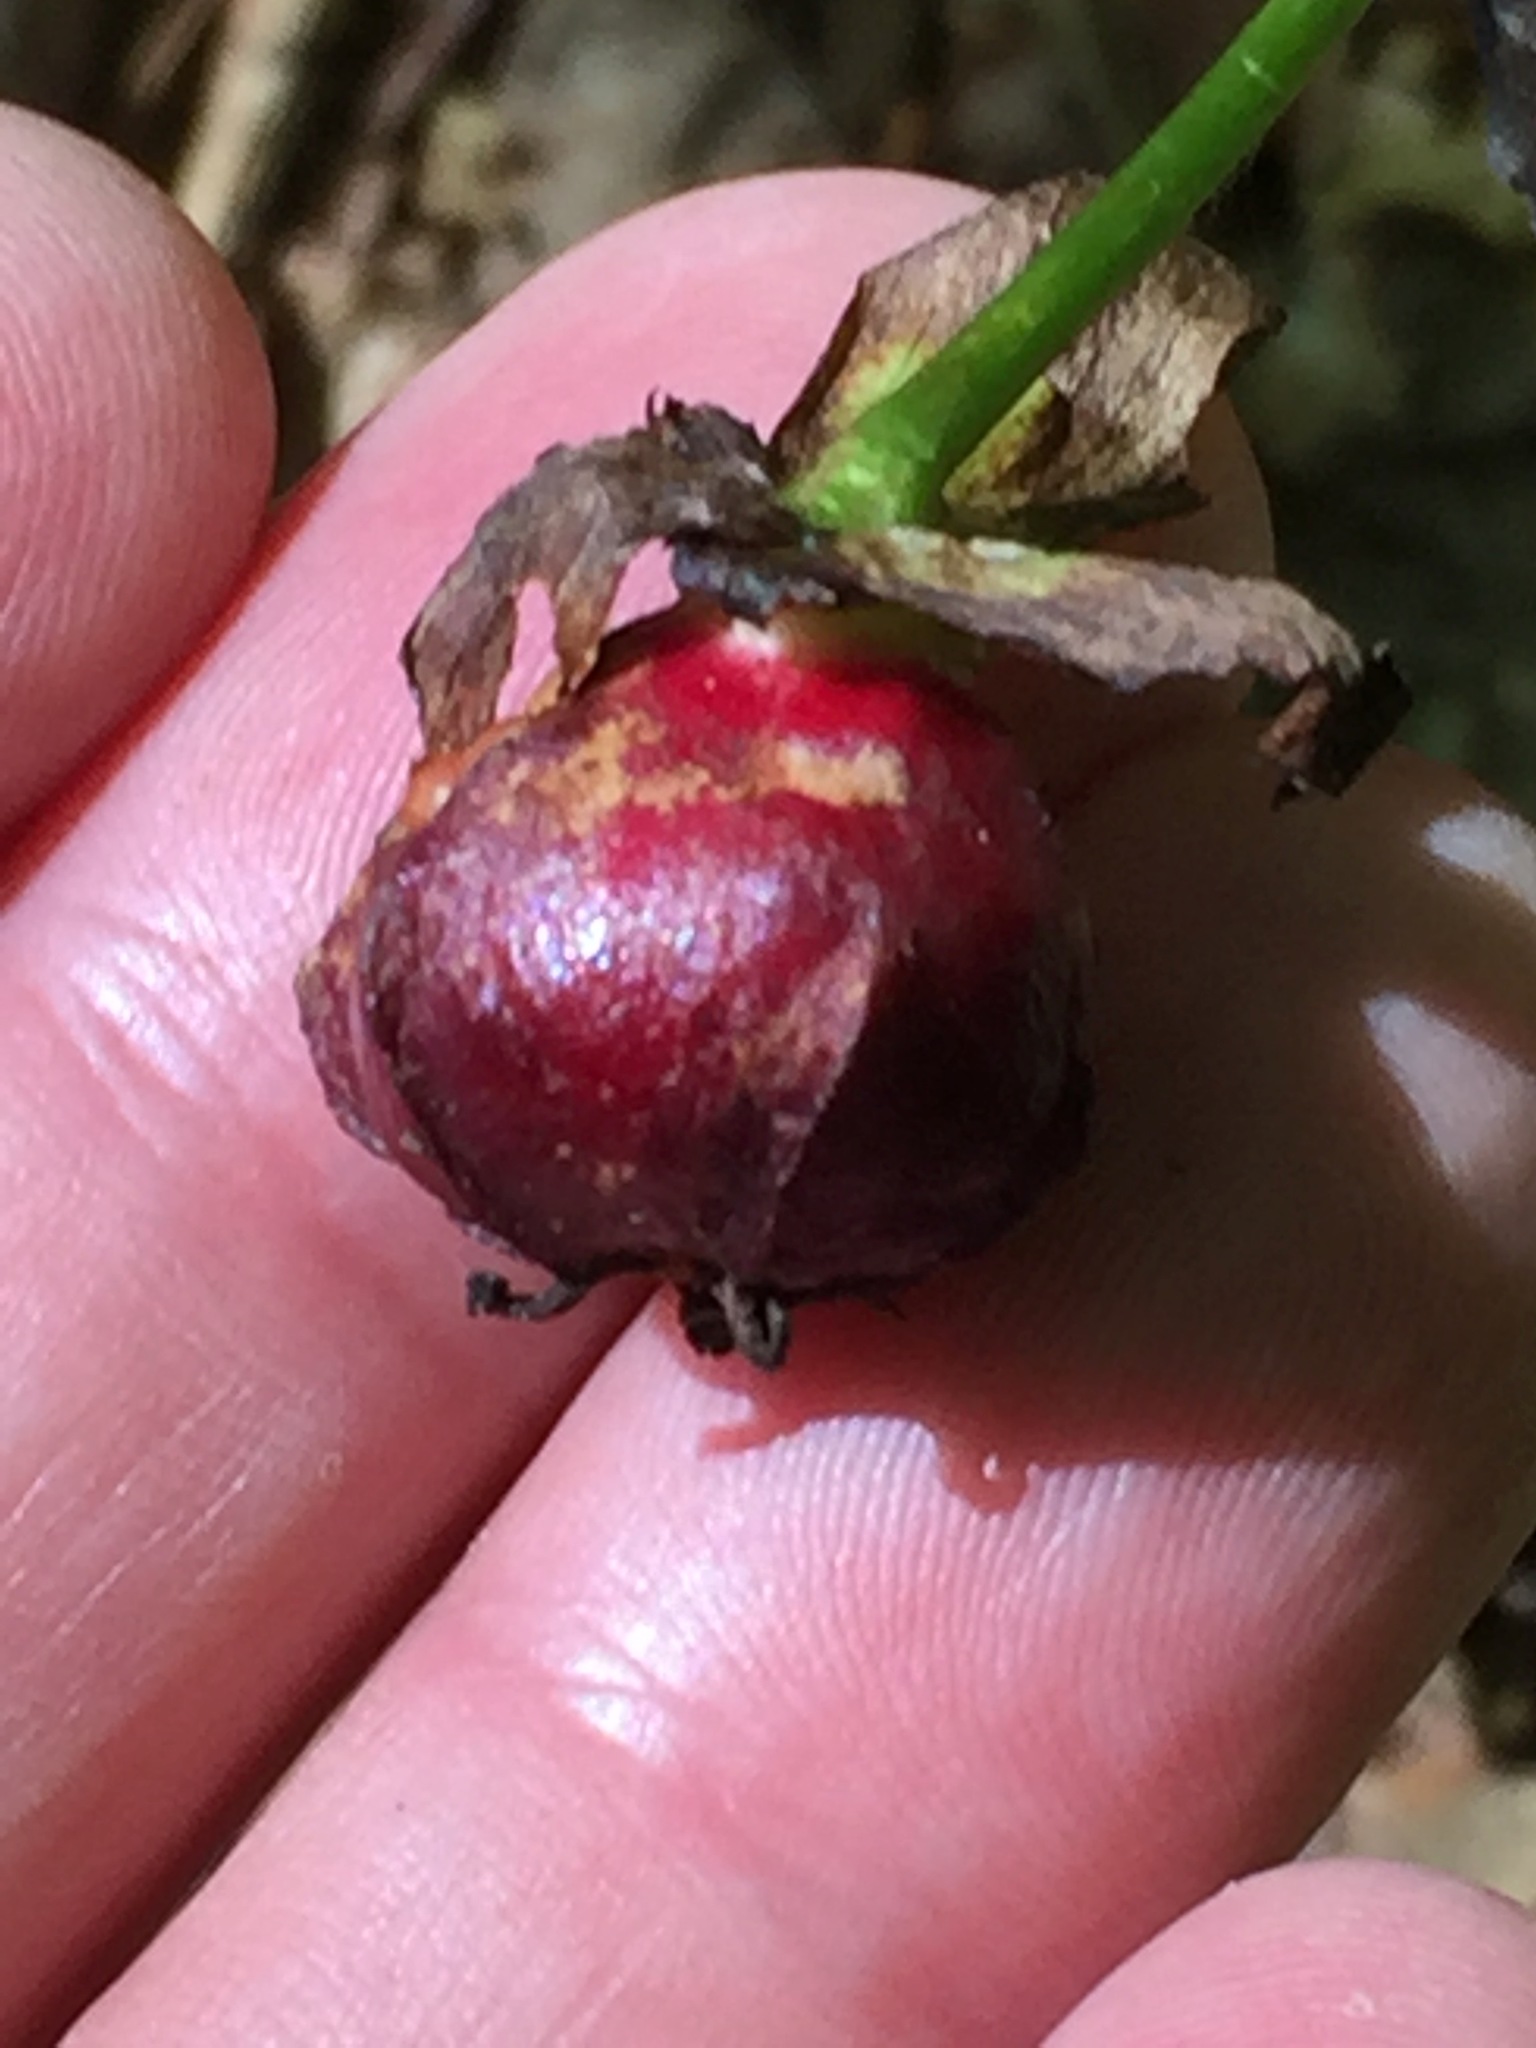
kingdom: Plantae
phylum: Tracheophyta
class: Liliopsida
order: Liliales
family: Melanthiaceae
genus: Trillium
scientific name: Trillium erectum
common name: Purple trillium
